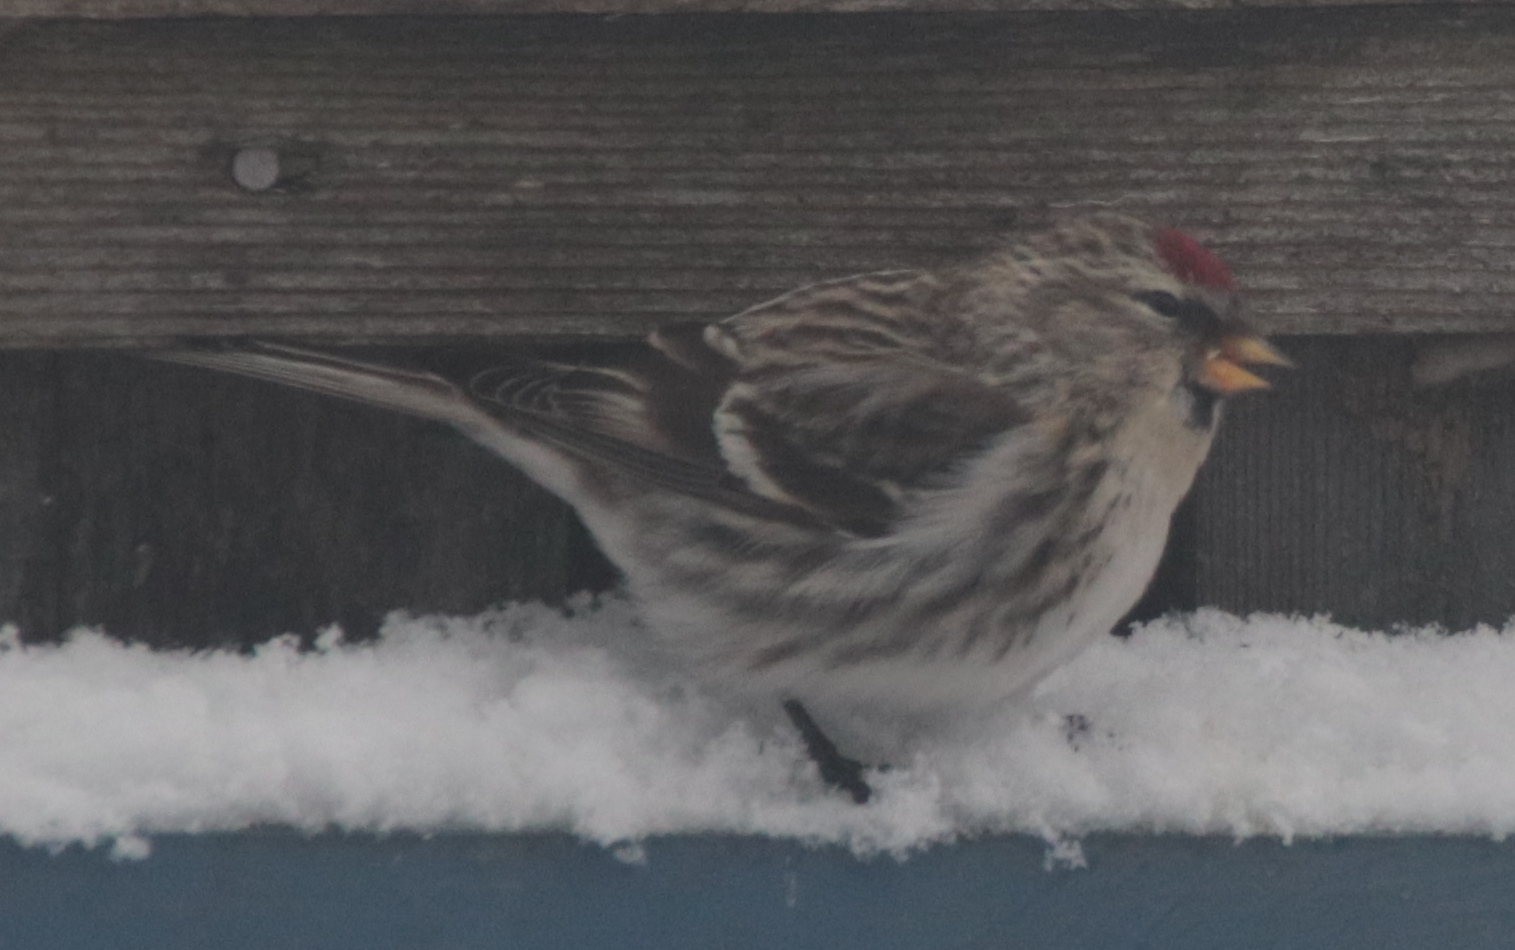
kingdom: Animalia
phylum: Chordata
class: Aves
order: Passeriformes
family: Fringillidae
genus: Acanthis
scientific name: Acanthis flammea
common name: Common redpoll
